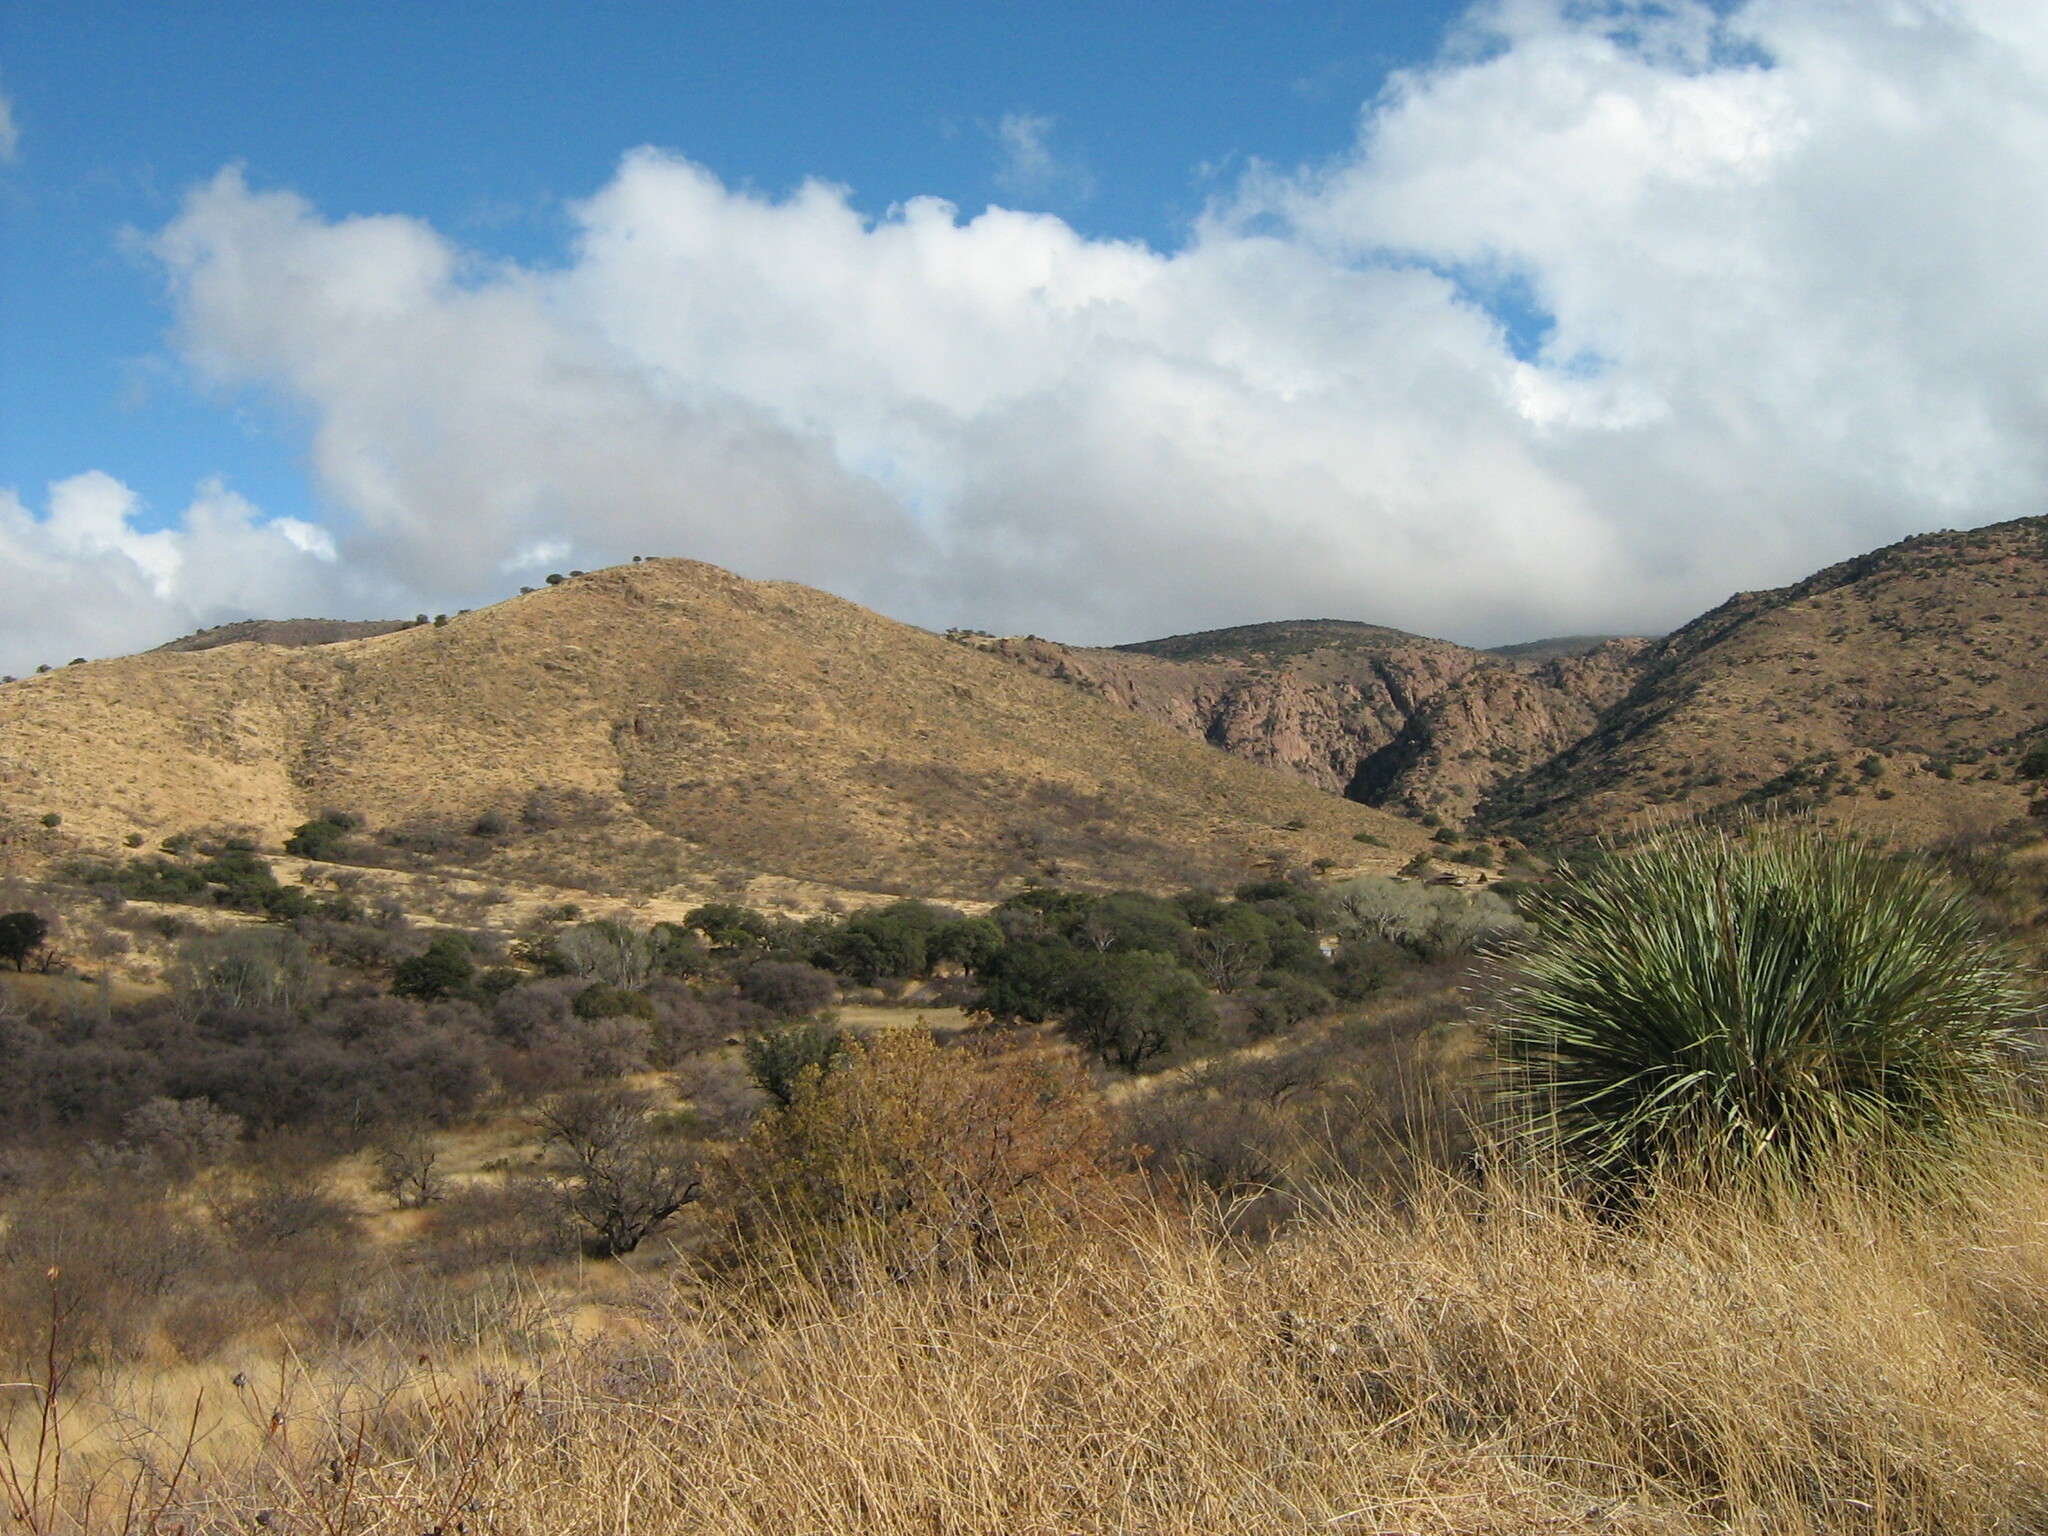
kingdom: Plantae
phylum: Tracheophyta
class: Liliopsida
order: Asparagales
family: Asparagaceae
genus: Dasylirion
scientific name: Dasylirion wheeleri
